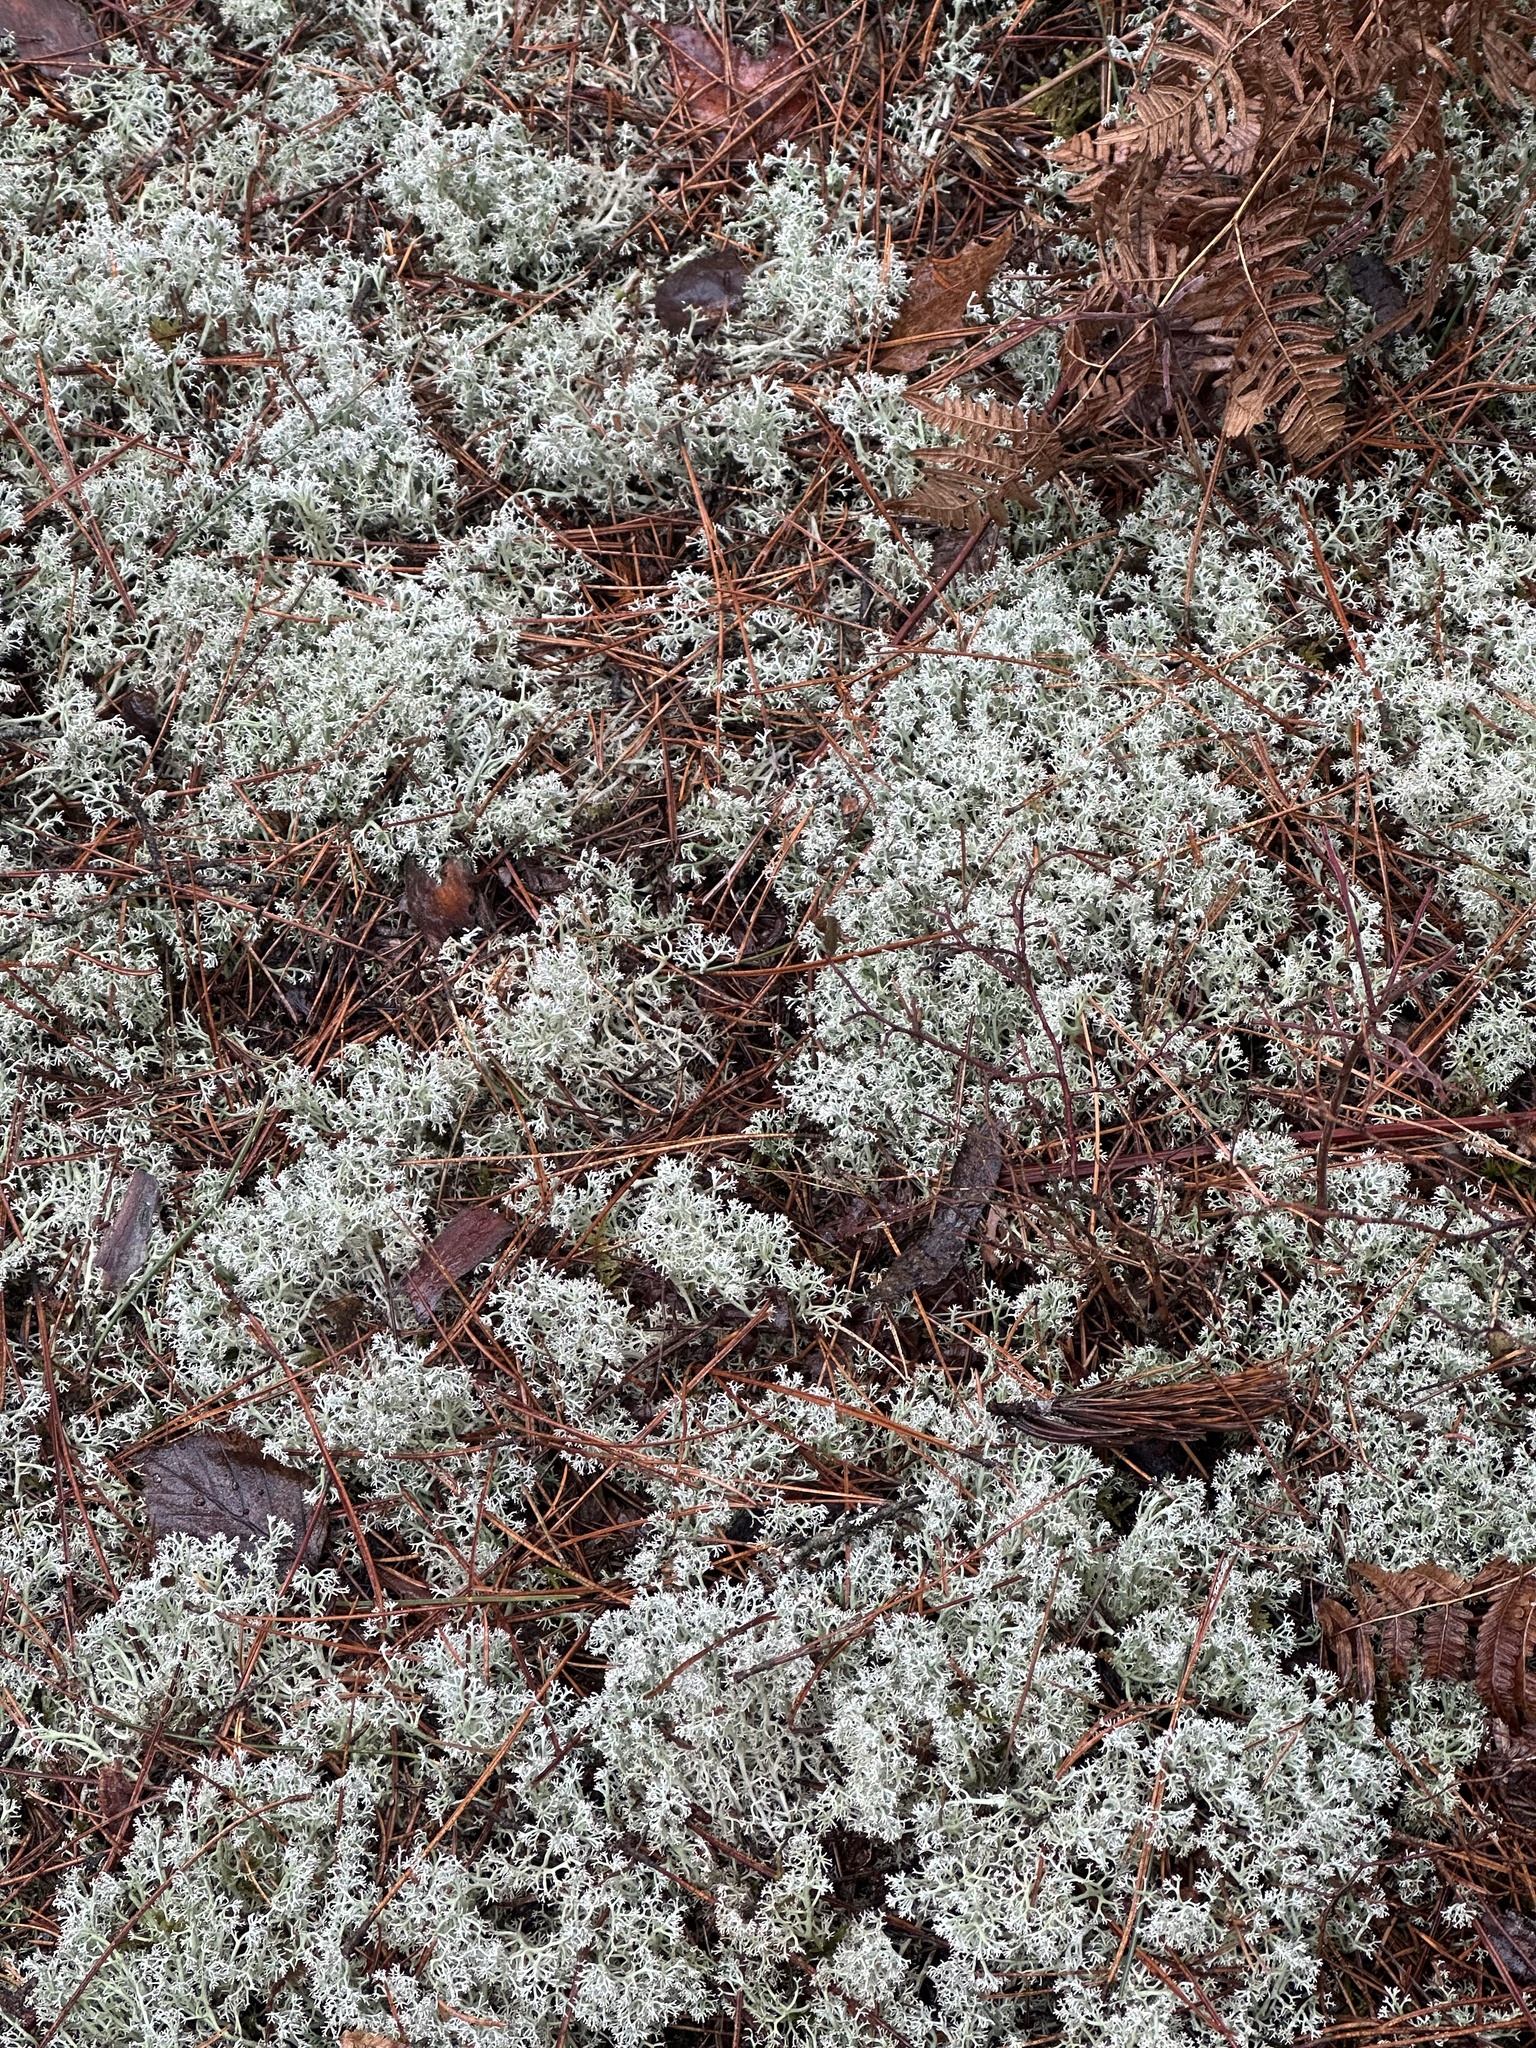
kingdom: Fungi
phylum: Ascomycota
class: Lecanoromycetes
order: Lecanorales
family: Cladoniaceae
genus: Cladonia
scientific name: Cladonia rangiferina
